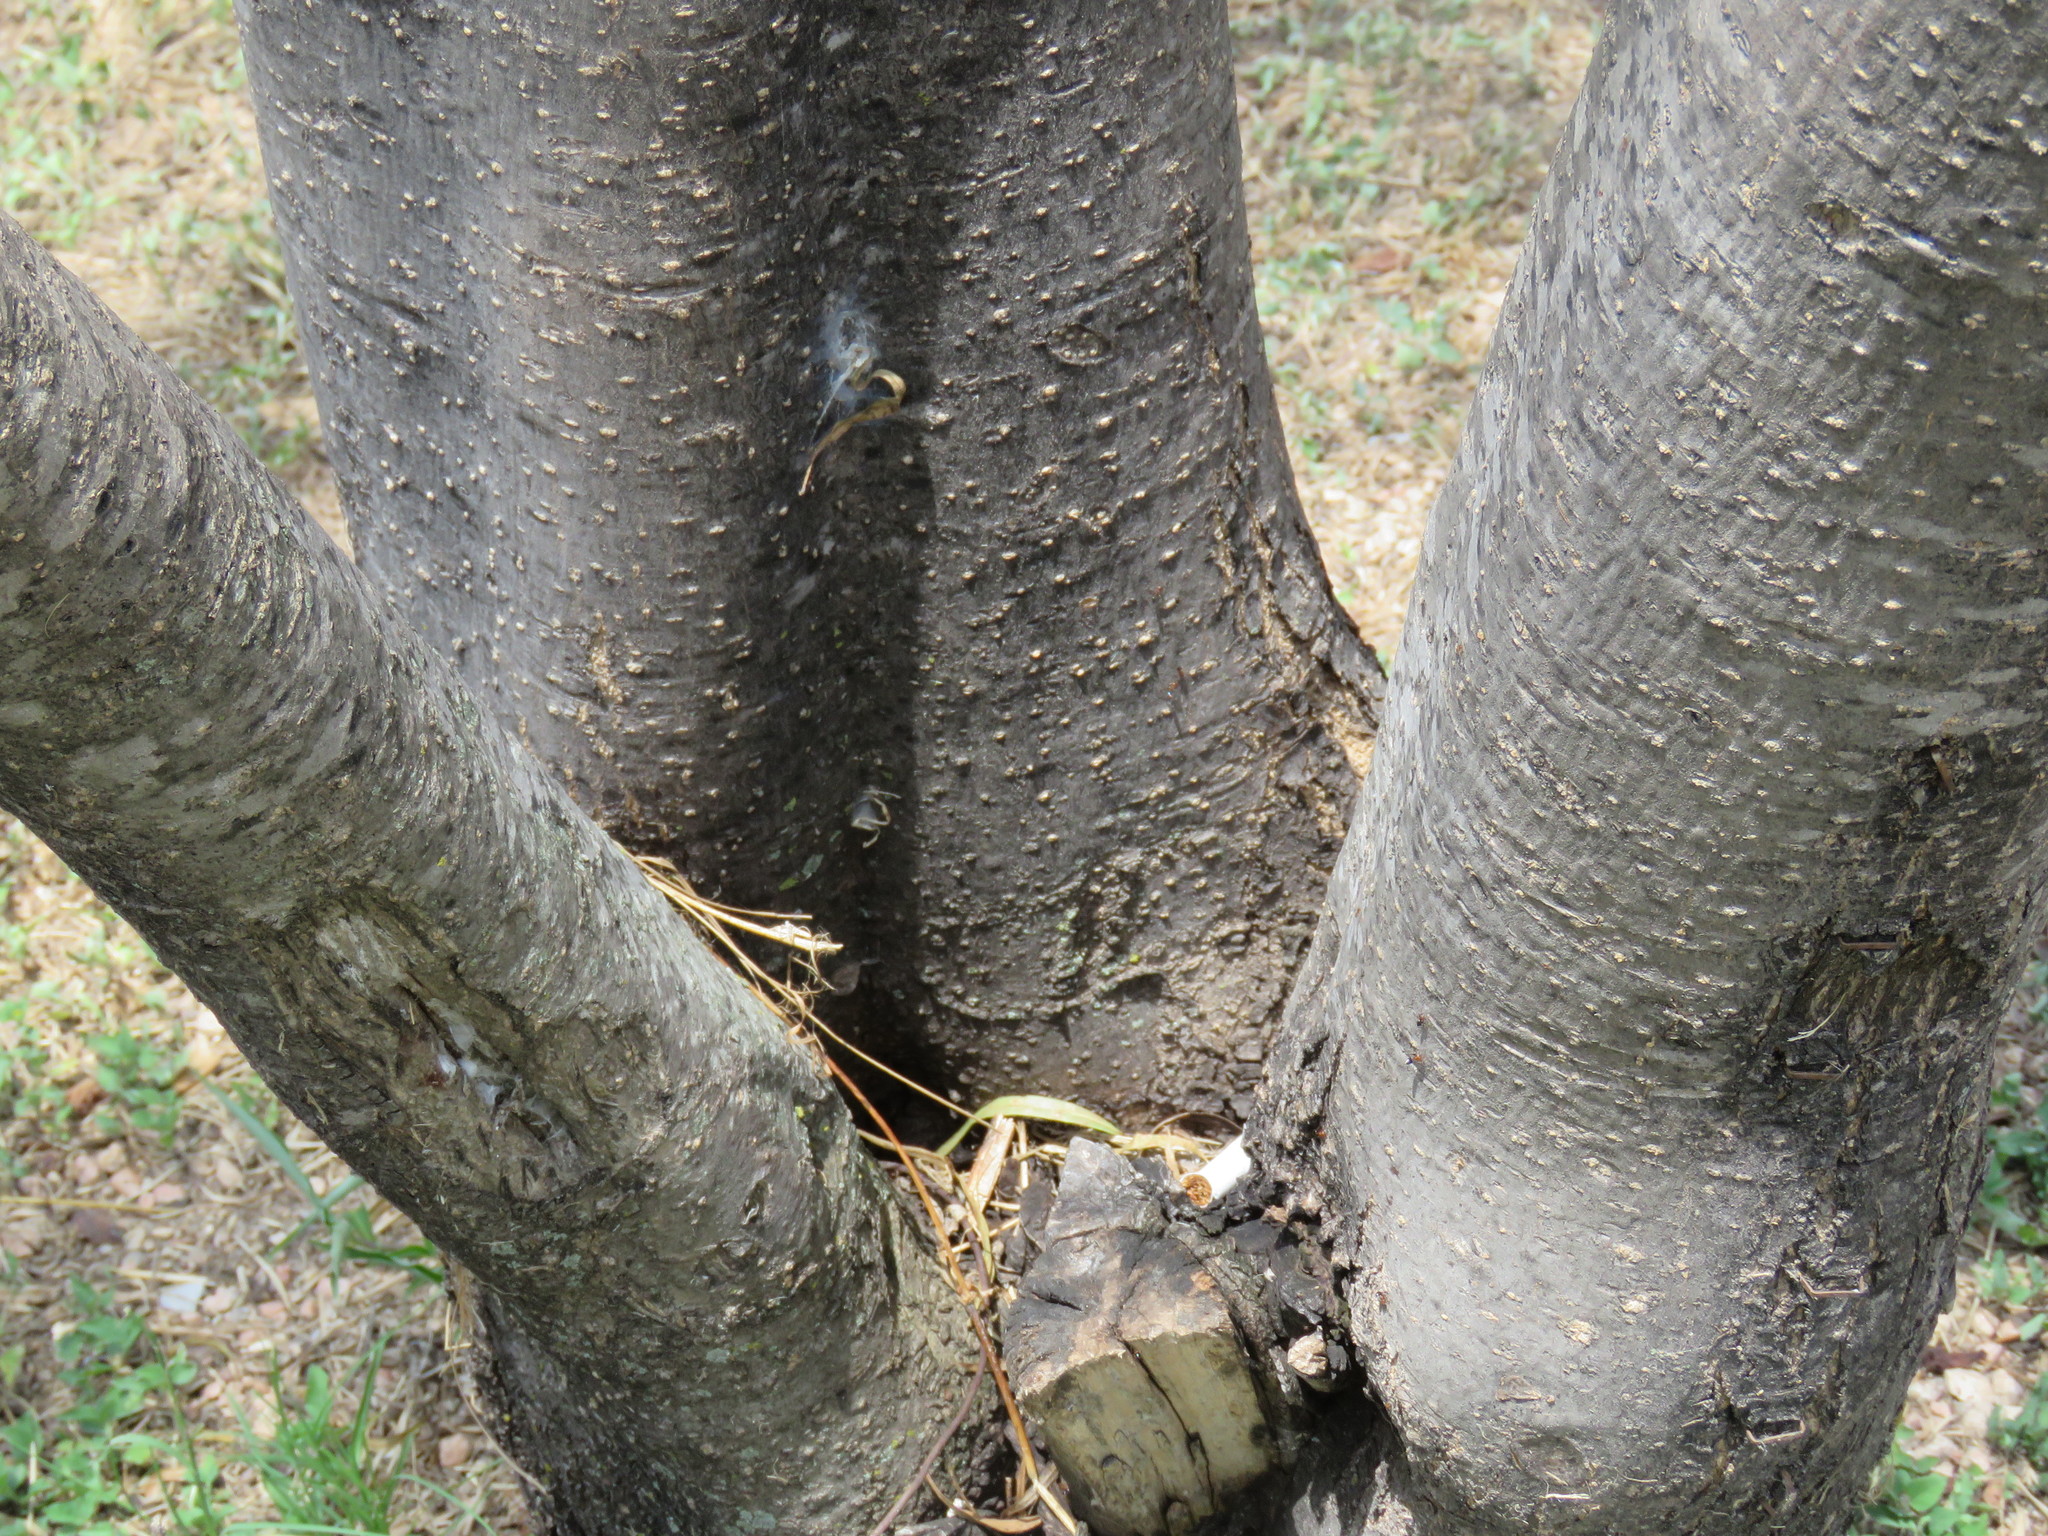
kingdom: Plantae
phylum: Tracheophyta
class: Magnoliopsida
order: Lamiales
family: Bignoniaceae
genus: Chilopsis
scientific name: Chilopsis linearis
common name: Desert-willow
